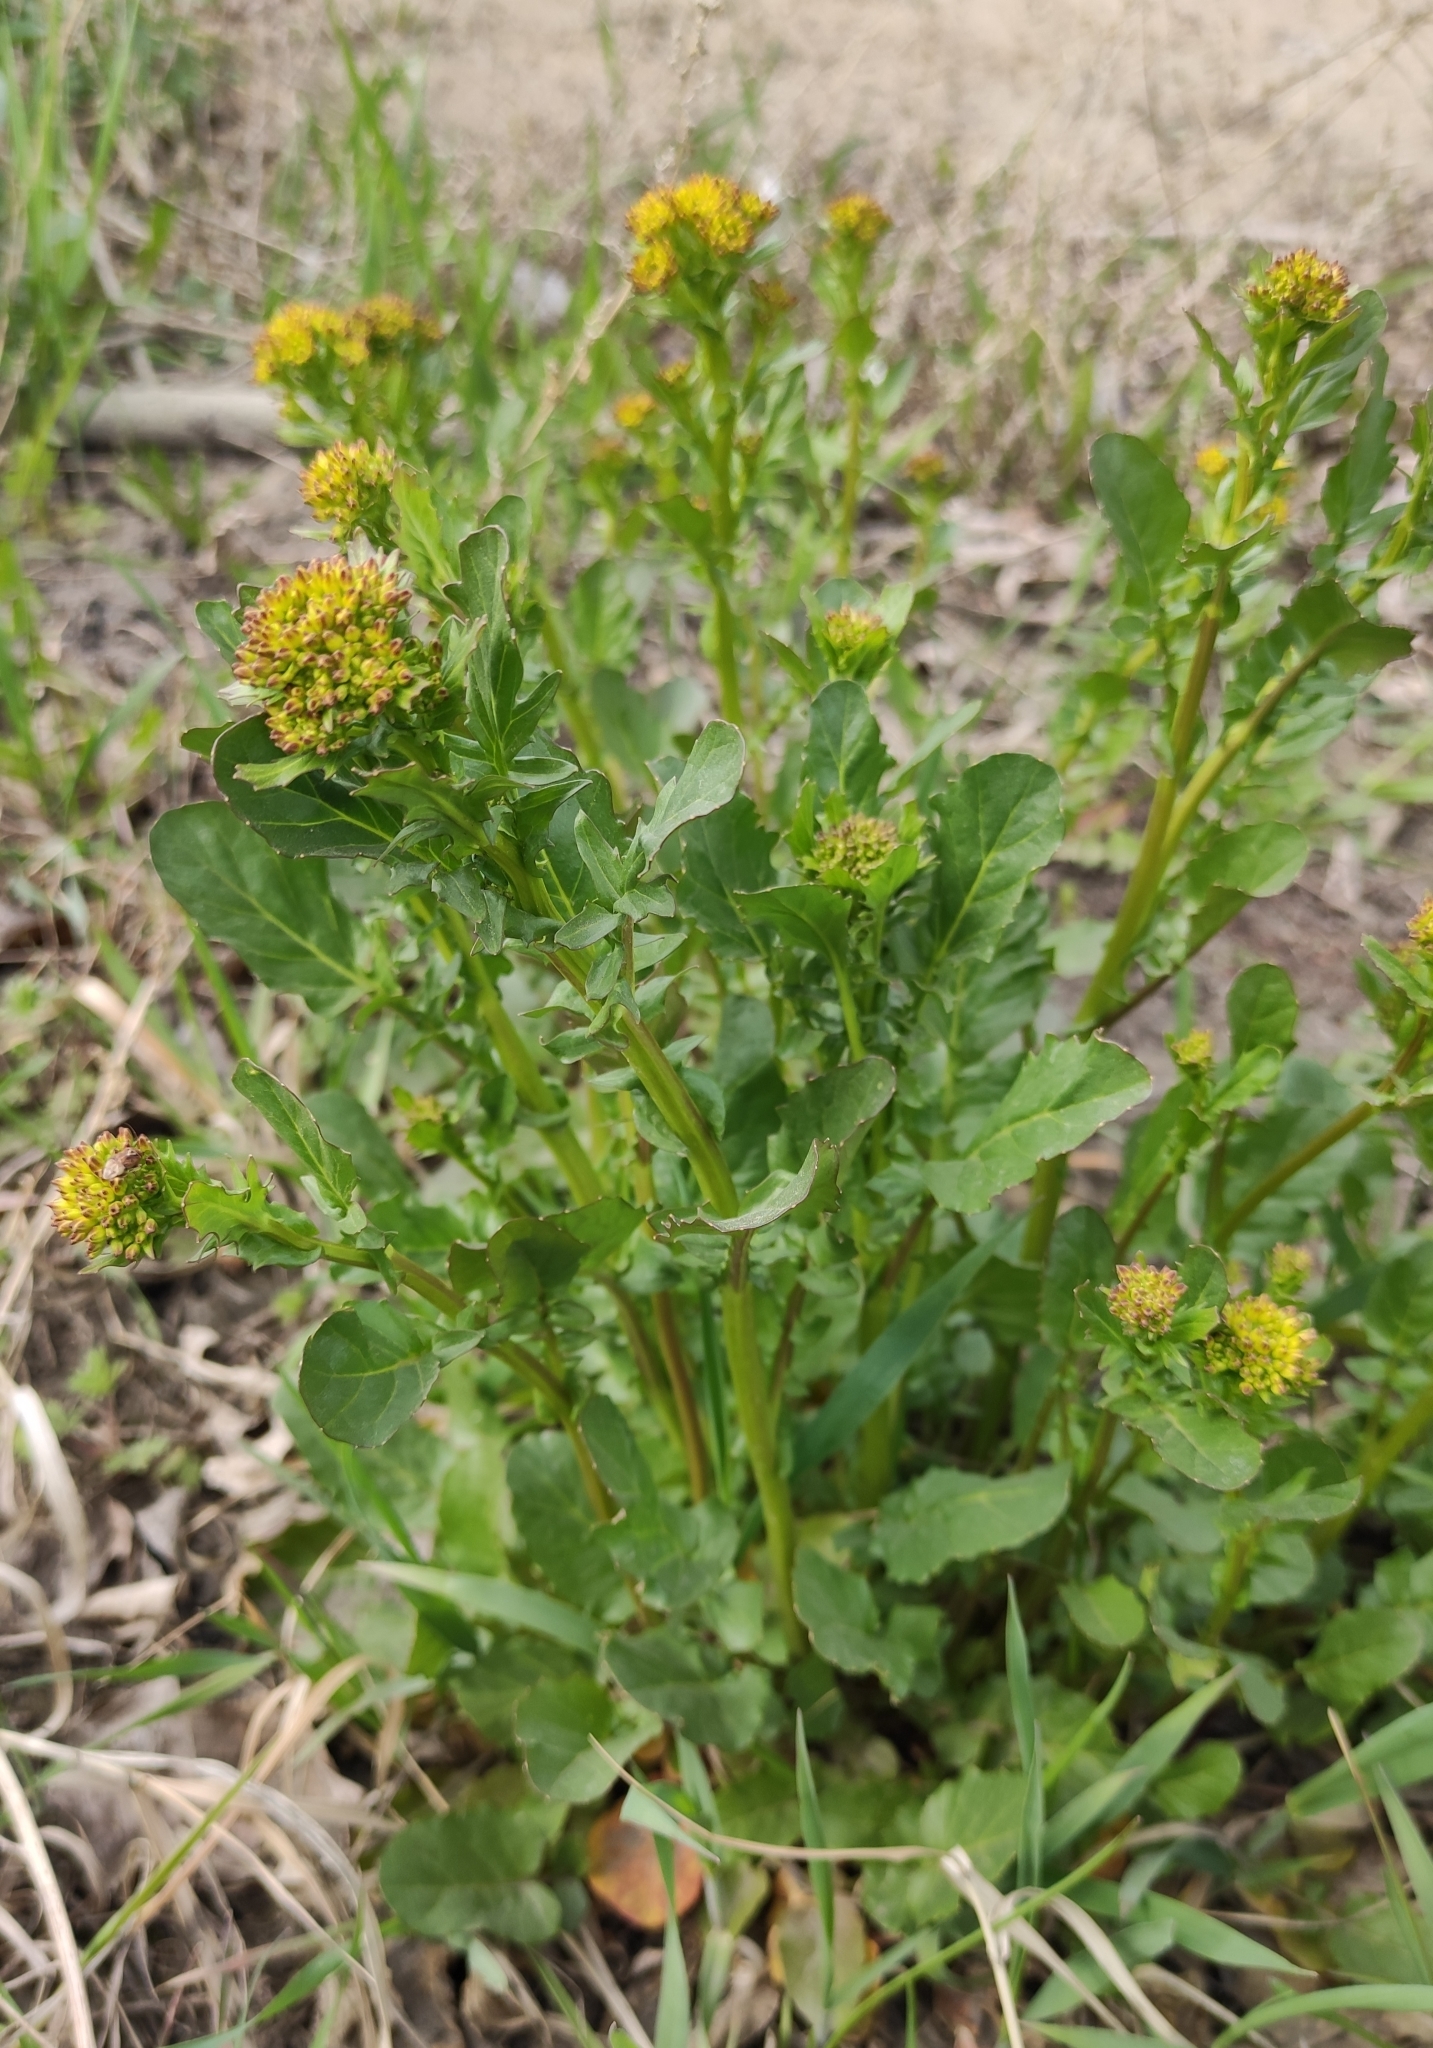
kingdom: Plantae
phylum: Tracheophyta
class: Magnoliopsida
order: Brassicales
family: Brassicaceae
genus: Barbarea
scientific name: Barbarea vulgaris
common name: Cressy-greens
